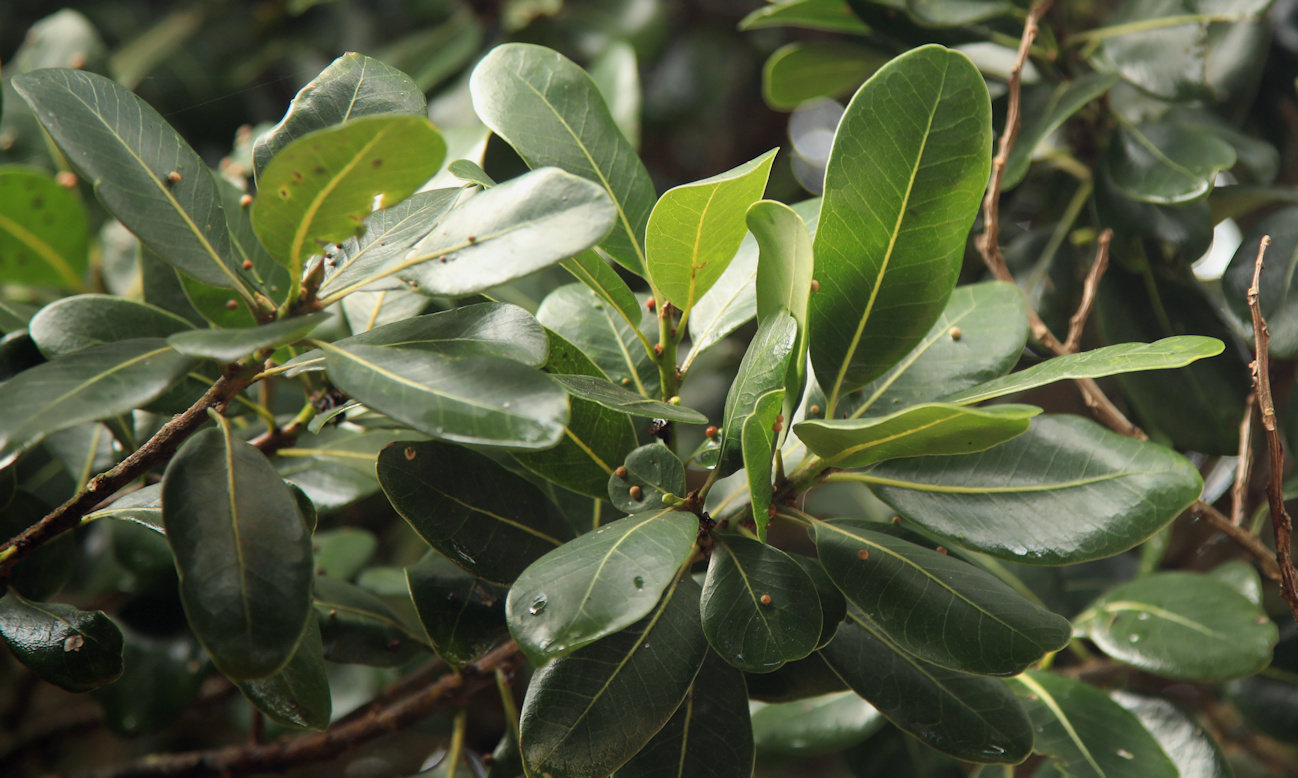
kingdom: Plantae
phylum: Tracheophyta
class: Magnoliopsida
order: Ericales
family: Sapotaceae
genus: Sideroxylon
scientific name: Sideroxylon inerme
